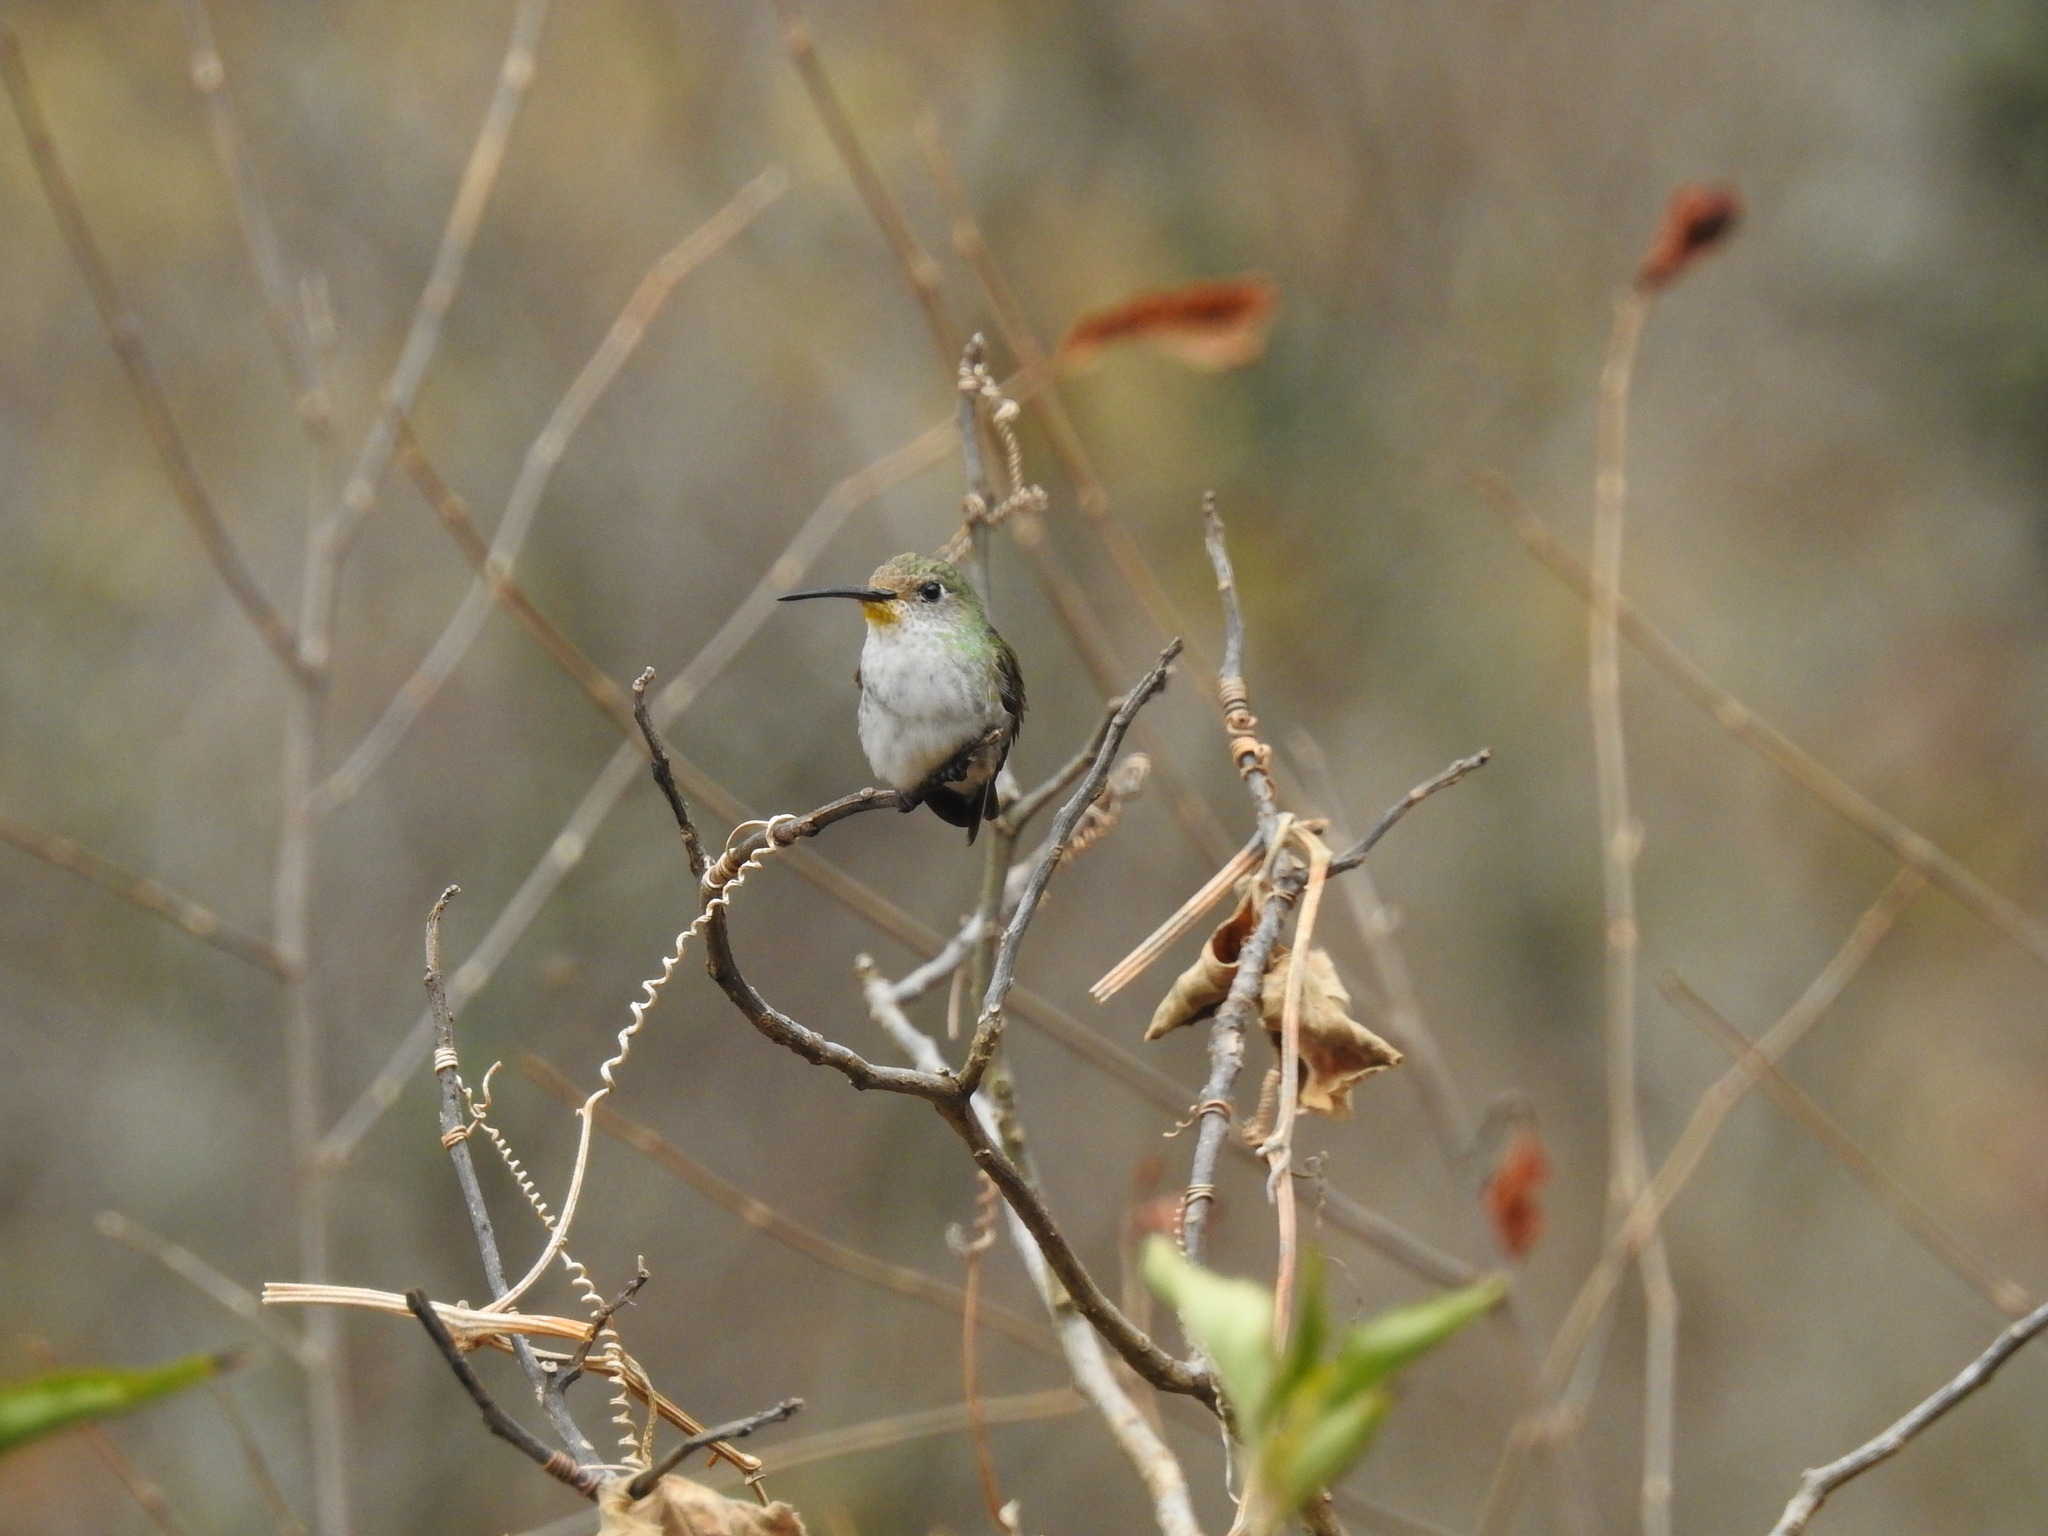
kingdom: Animalia
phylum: Chordata
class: Aves
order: Apodiformes
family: Trochilidae
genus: Elliotomyia
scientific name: Elliotomyia chionogaster
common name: White-bellied hummingbird
